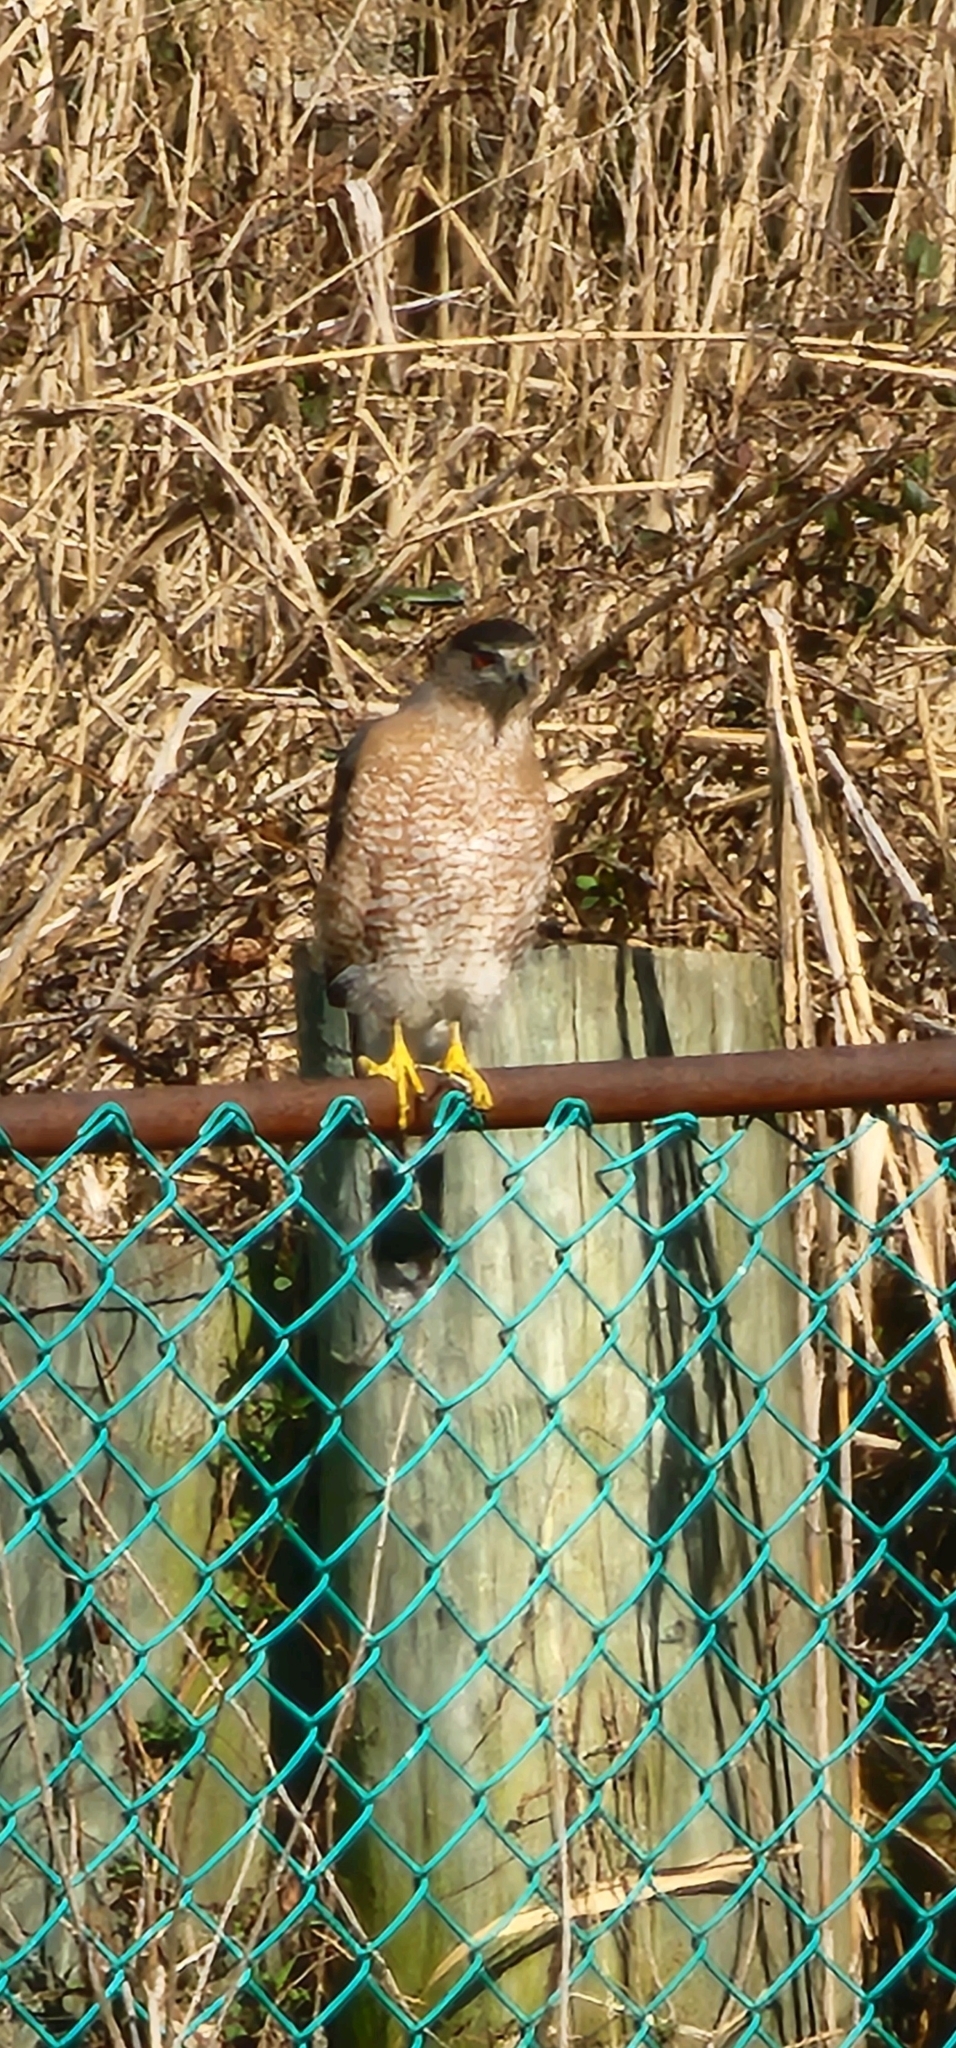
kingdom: Animalia
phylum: Chordata
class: Aves
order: Accipitriformes
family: Accipitridae
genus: Accipiter
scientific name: Accipiter cooperii
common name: Cooper's hawk
